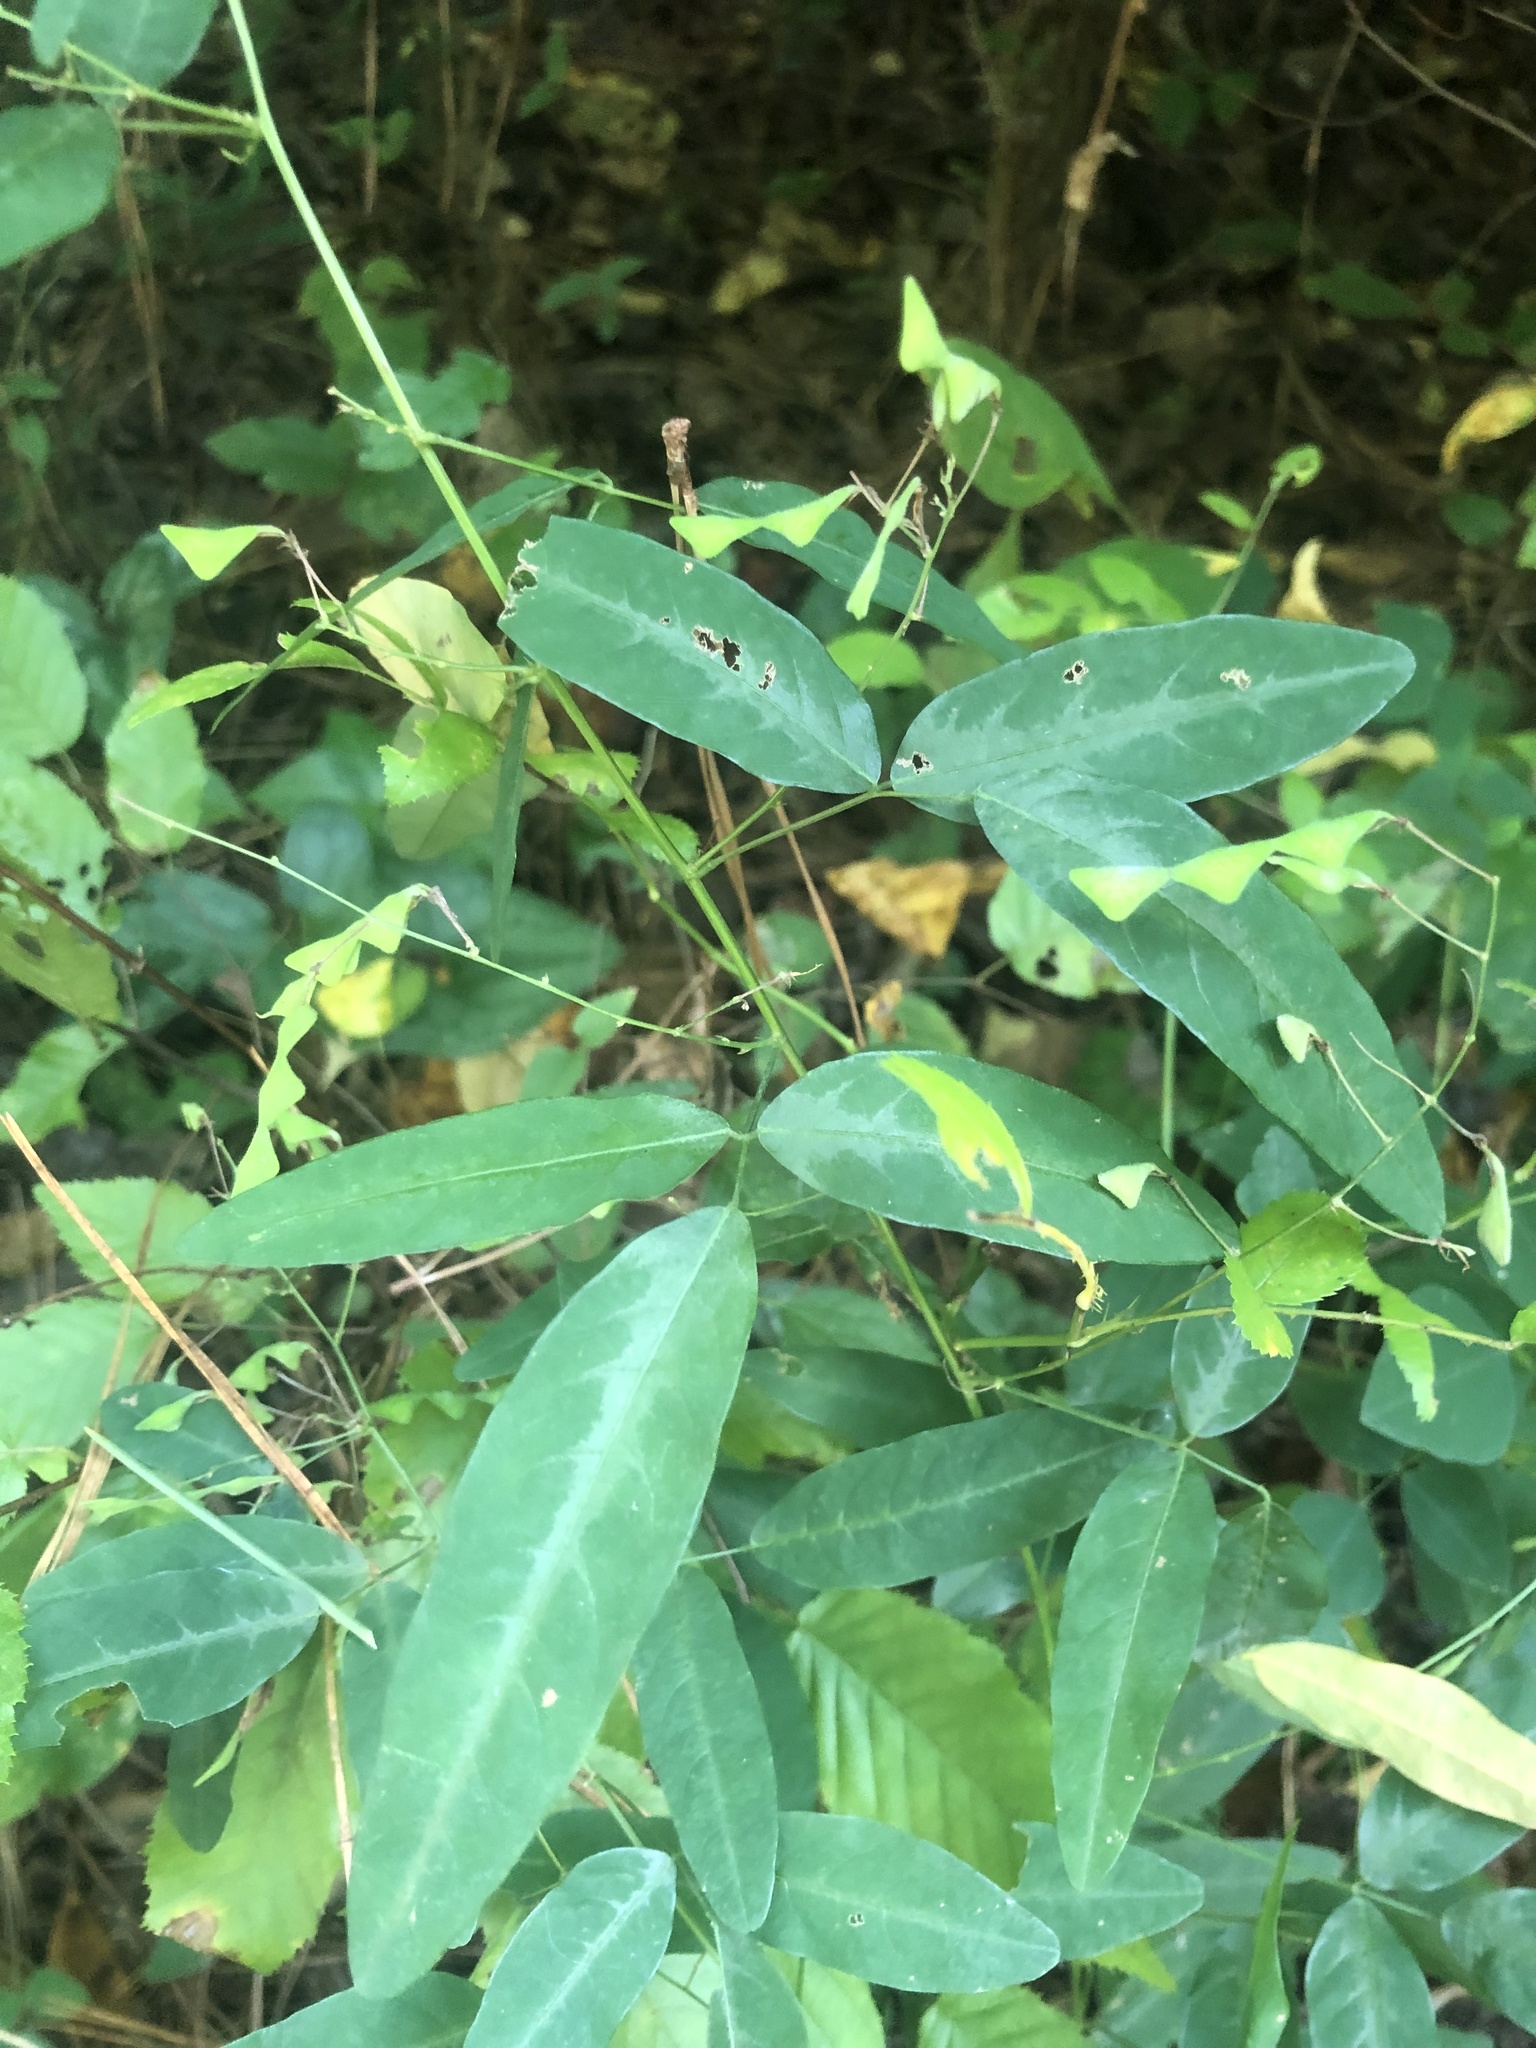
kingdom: Plantae
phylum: Tracheophyta
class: Magnoliopsida
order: Fabales
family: Fabaceae
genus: Desmodium
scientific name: Desmodium paniculatum
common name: Panicled tick-clover
